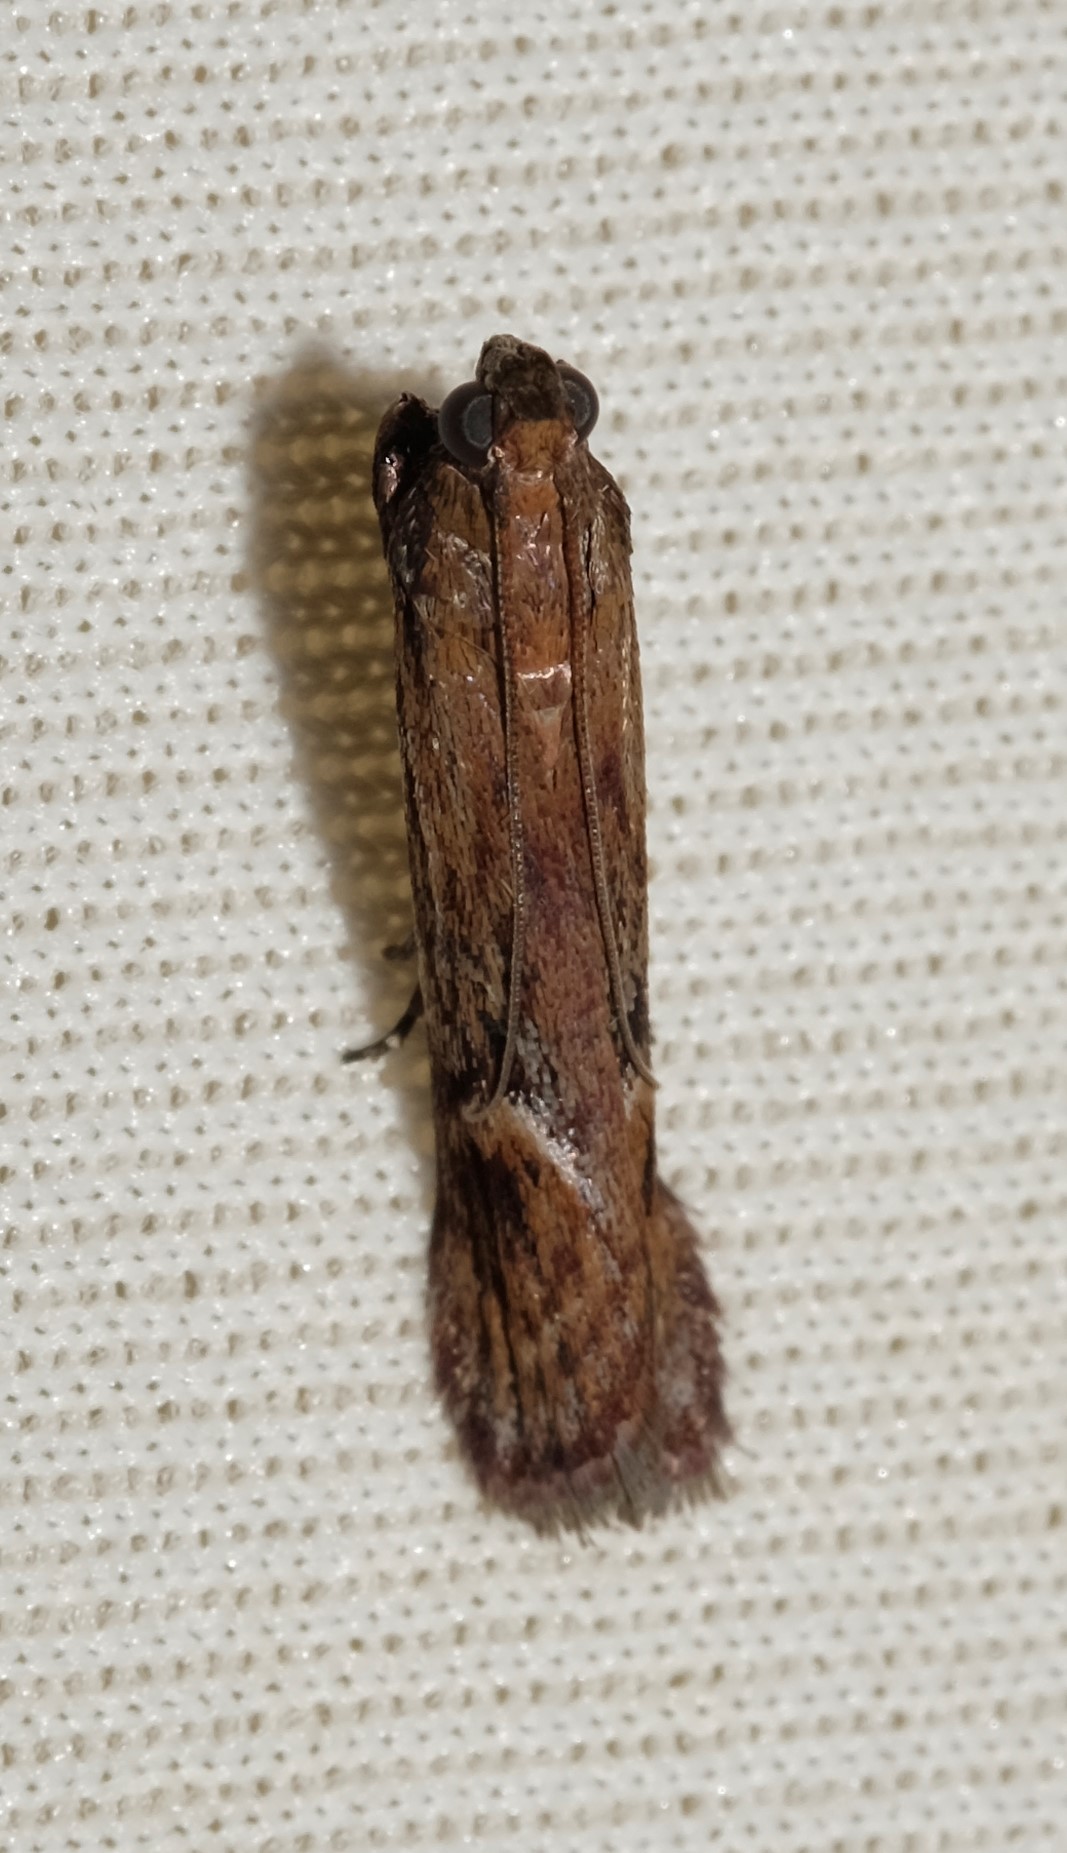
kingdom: Animalia
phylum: Arthropoda
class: Insecta
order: Lepidoptera
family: Pyralidae
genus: Balanomis
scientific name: Balanomis encyclia
